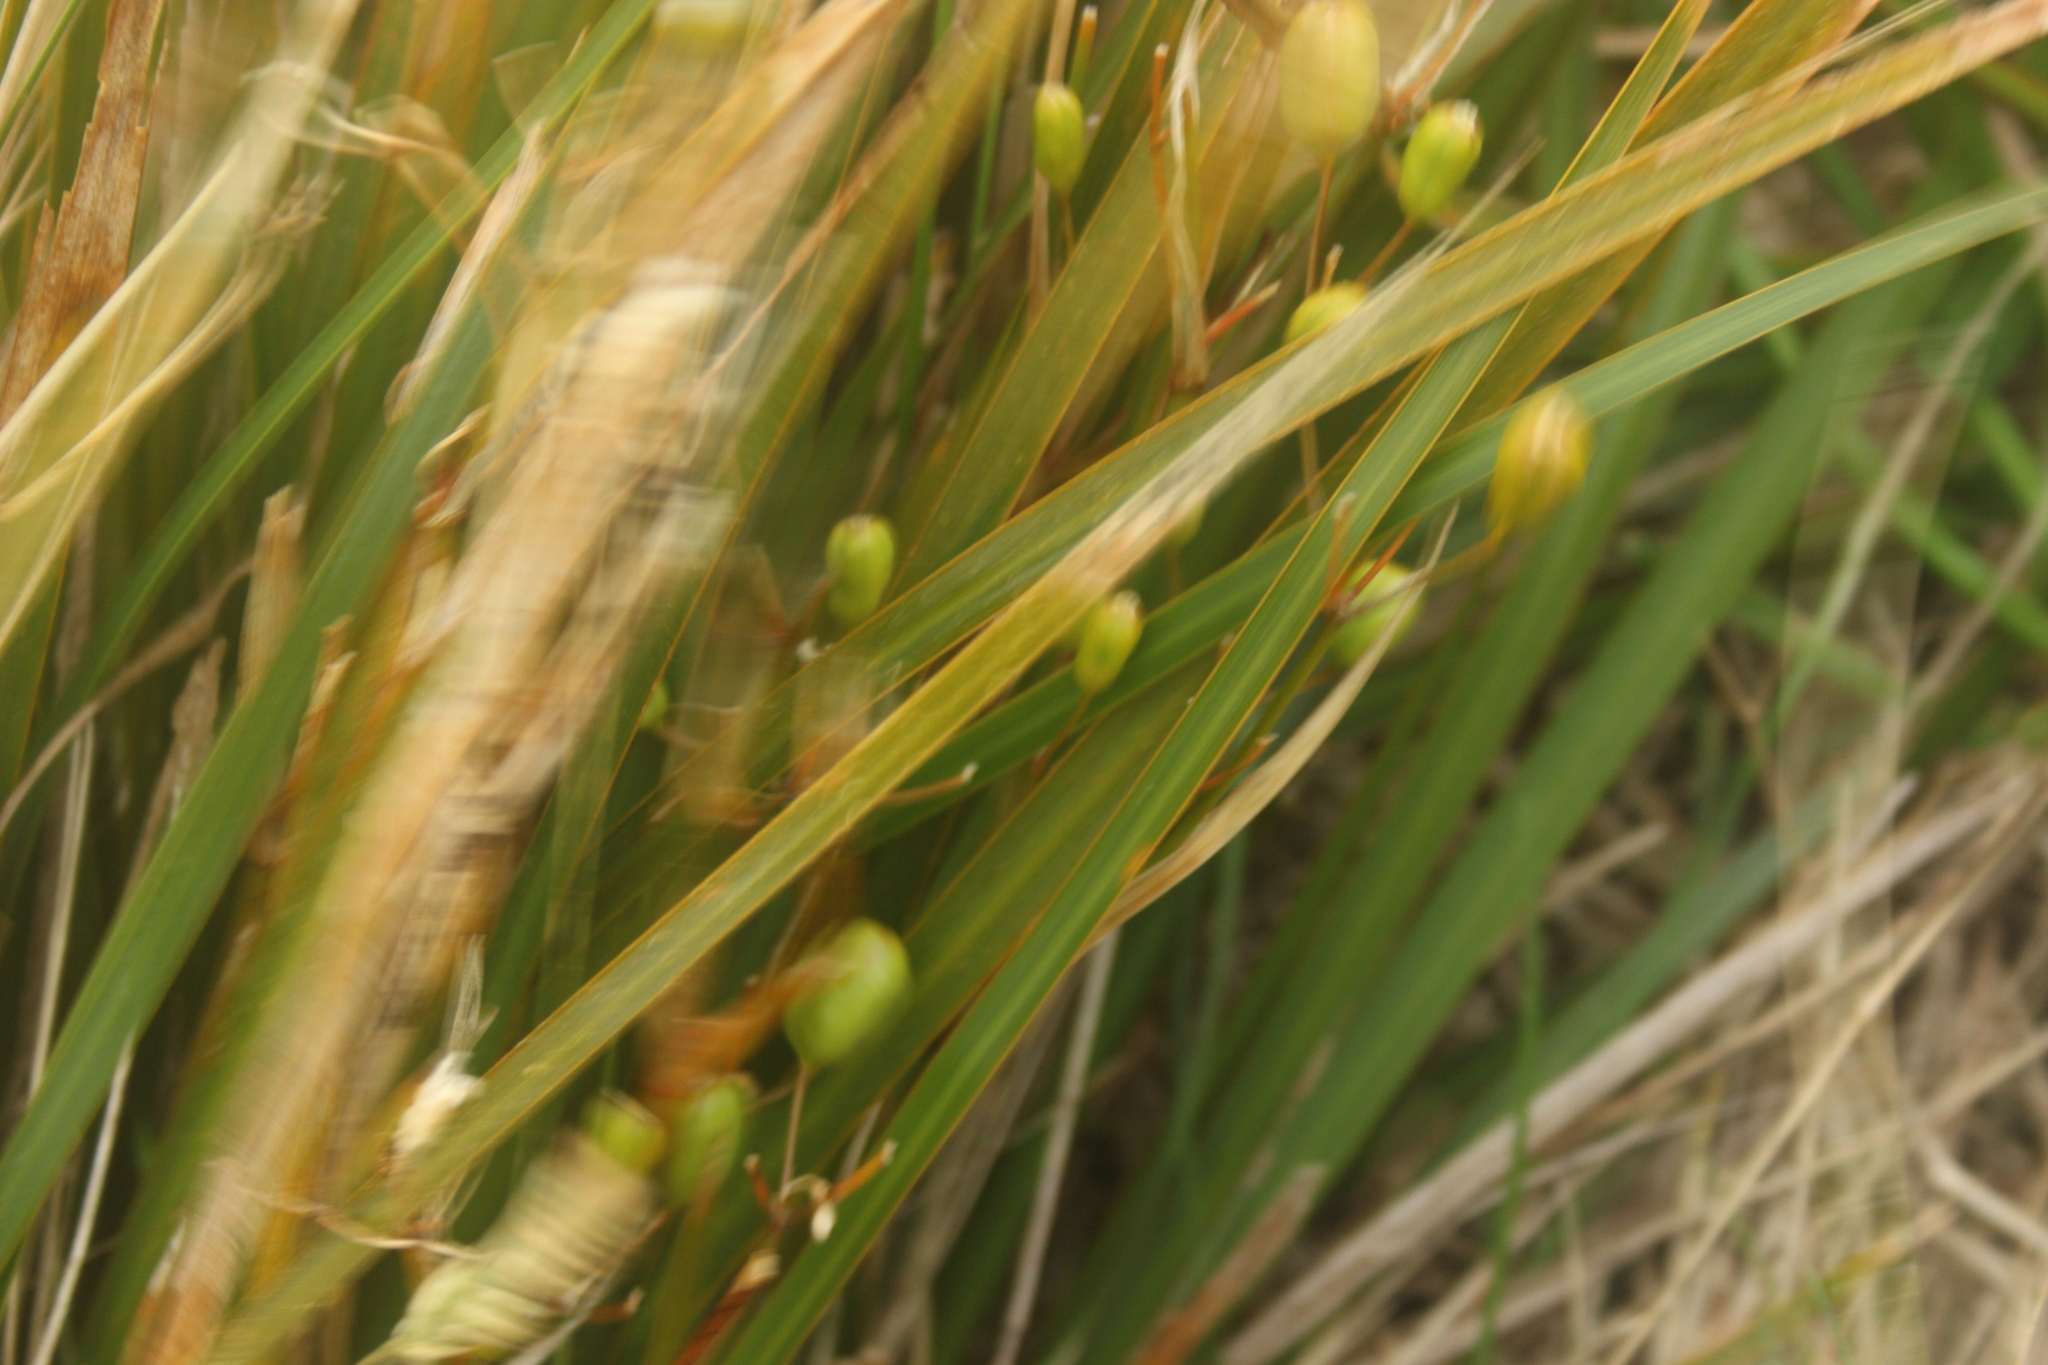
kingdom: Plantae
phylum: Tracheophyta
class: Liliopsida
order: Asparagales
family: Iridaceae
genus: Libertia
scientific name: Libertia ixioides
